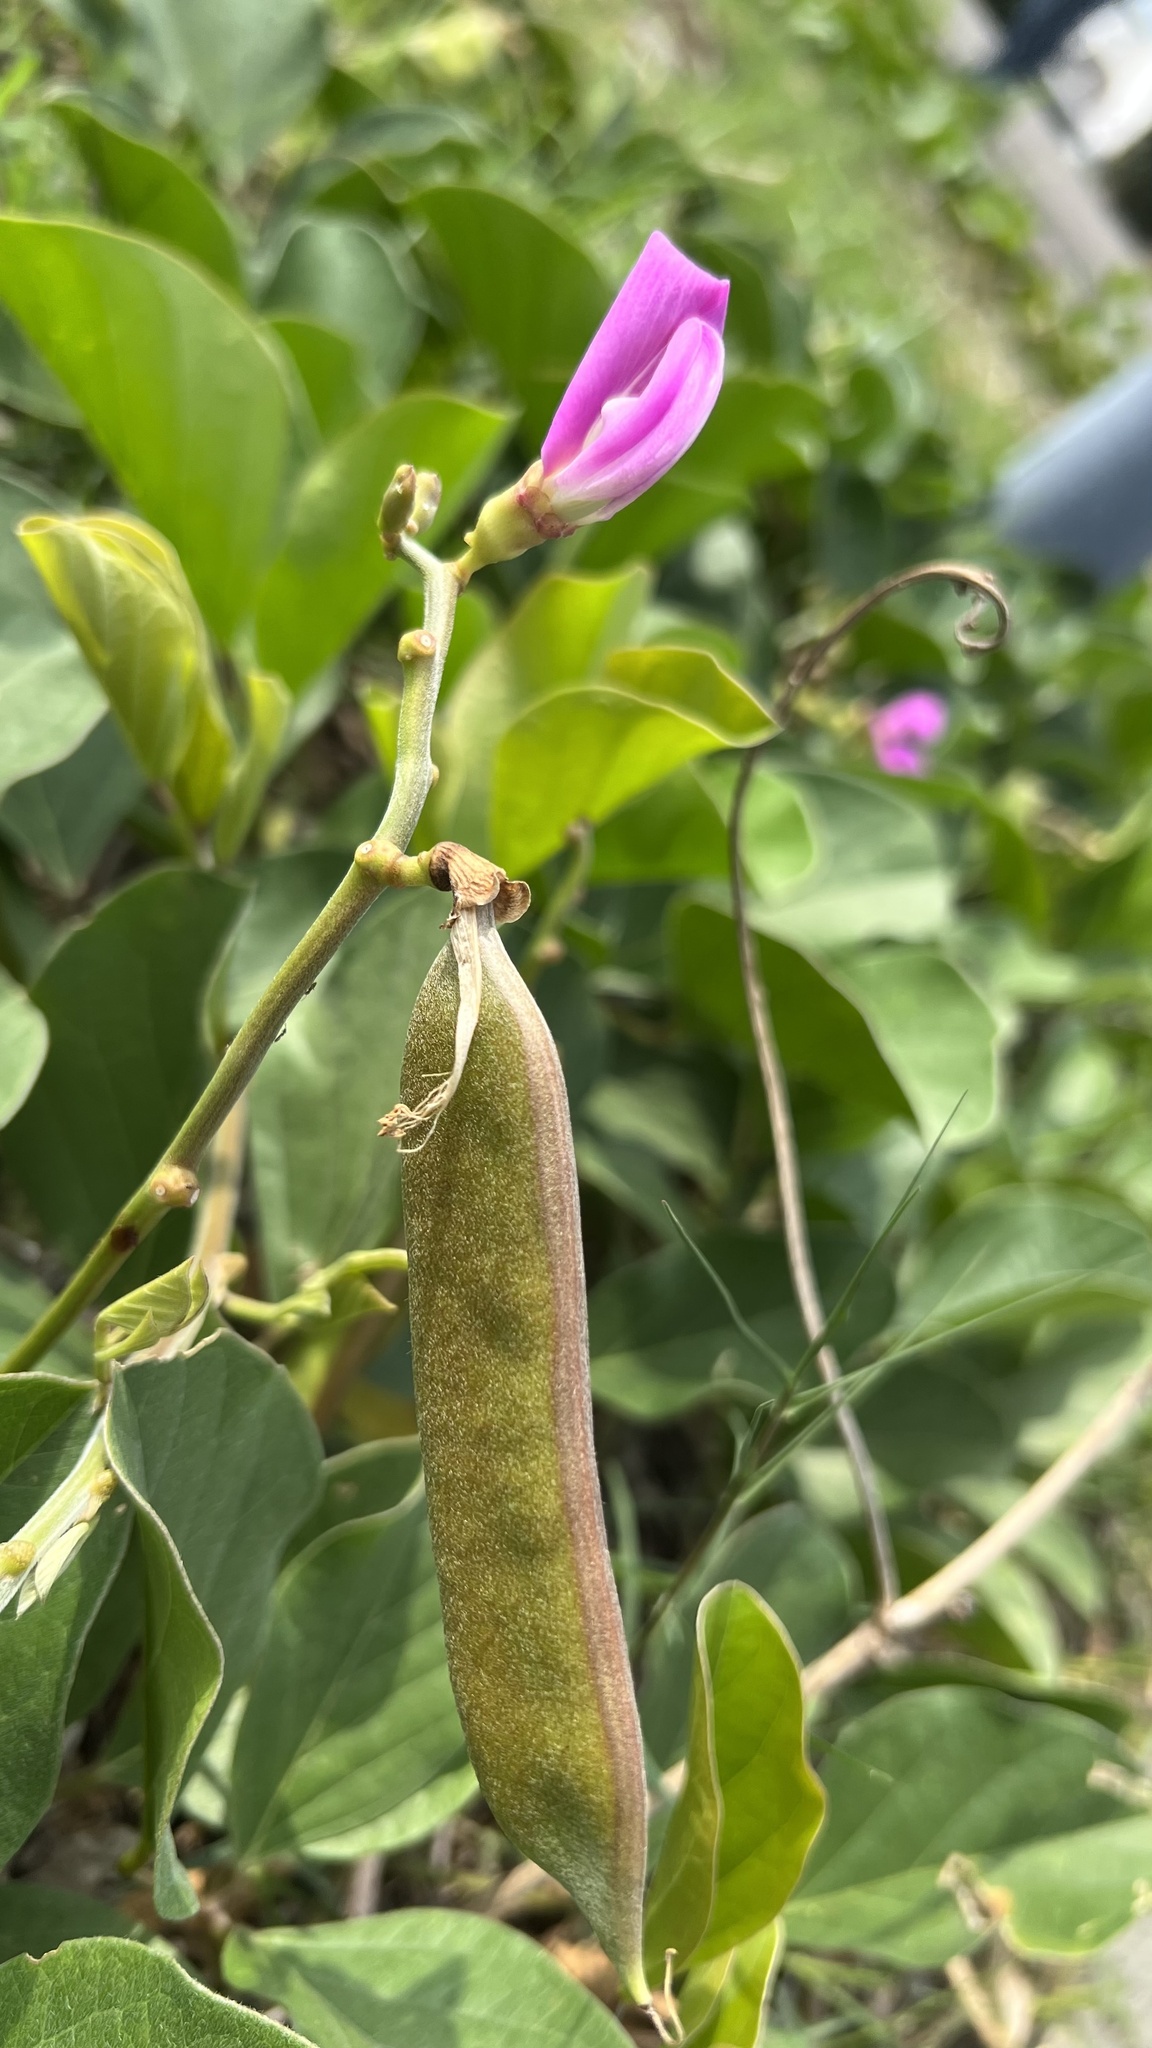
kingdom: Plantae
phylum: Tracheophyta
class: Magnoliopsida
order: Fabales
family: Fabaceae
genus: Canavalia
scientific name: Canavalia rosea
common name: Beach-bean
